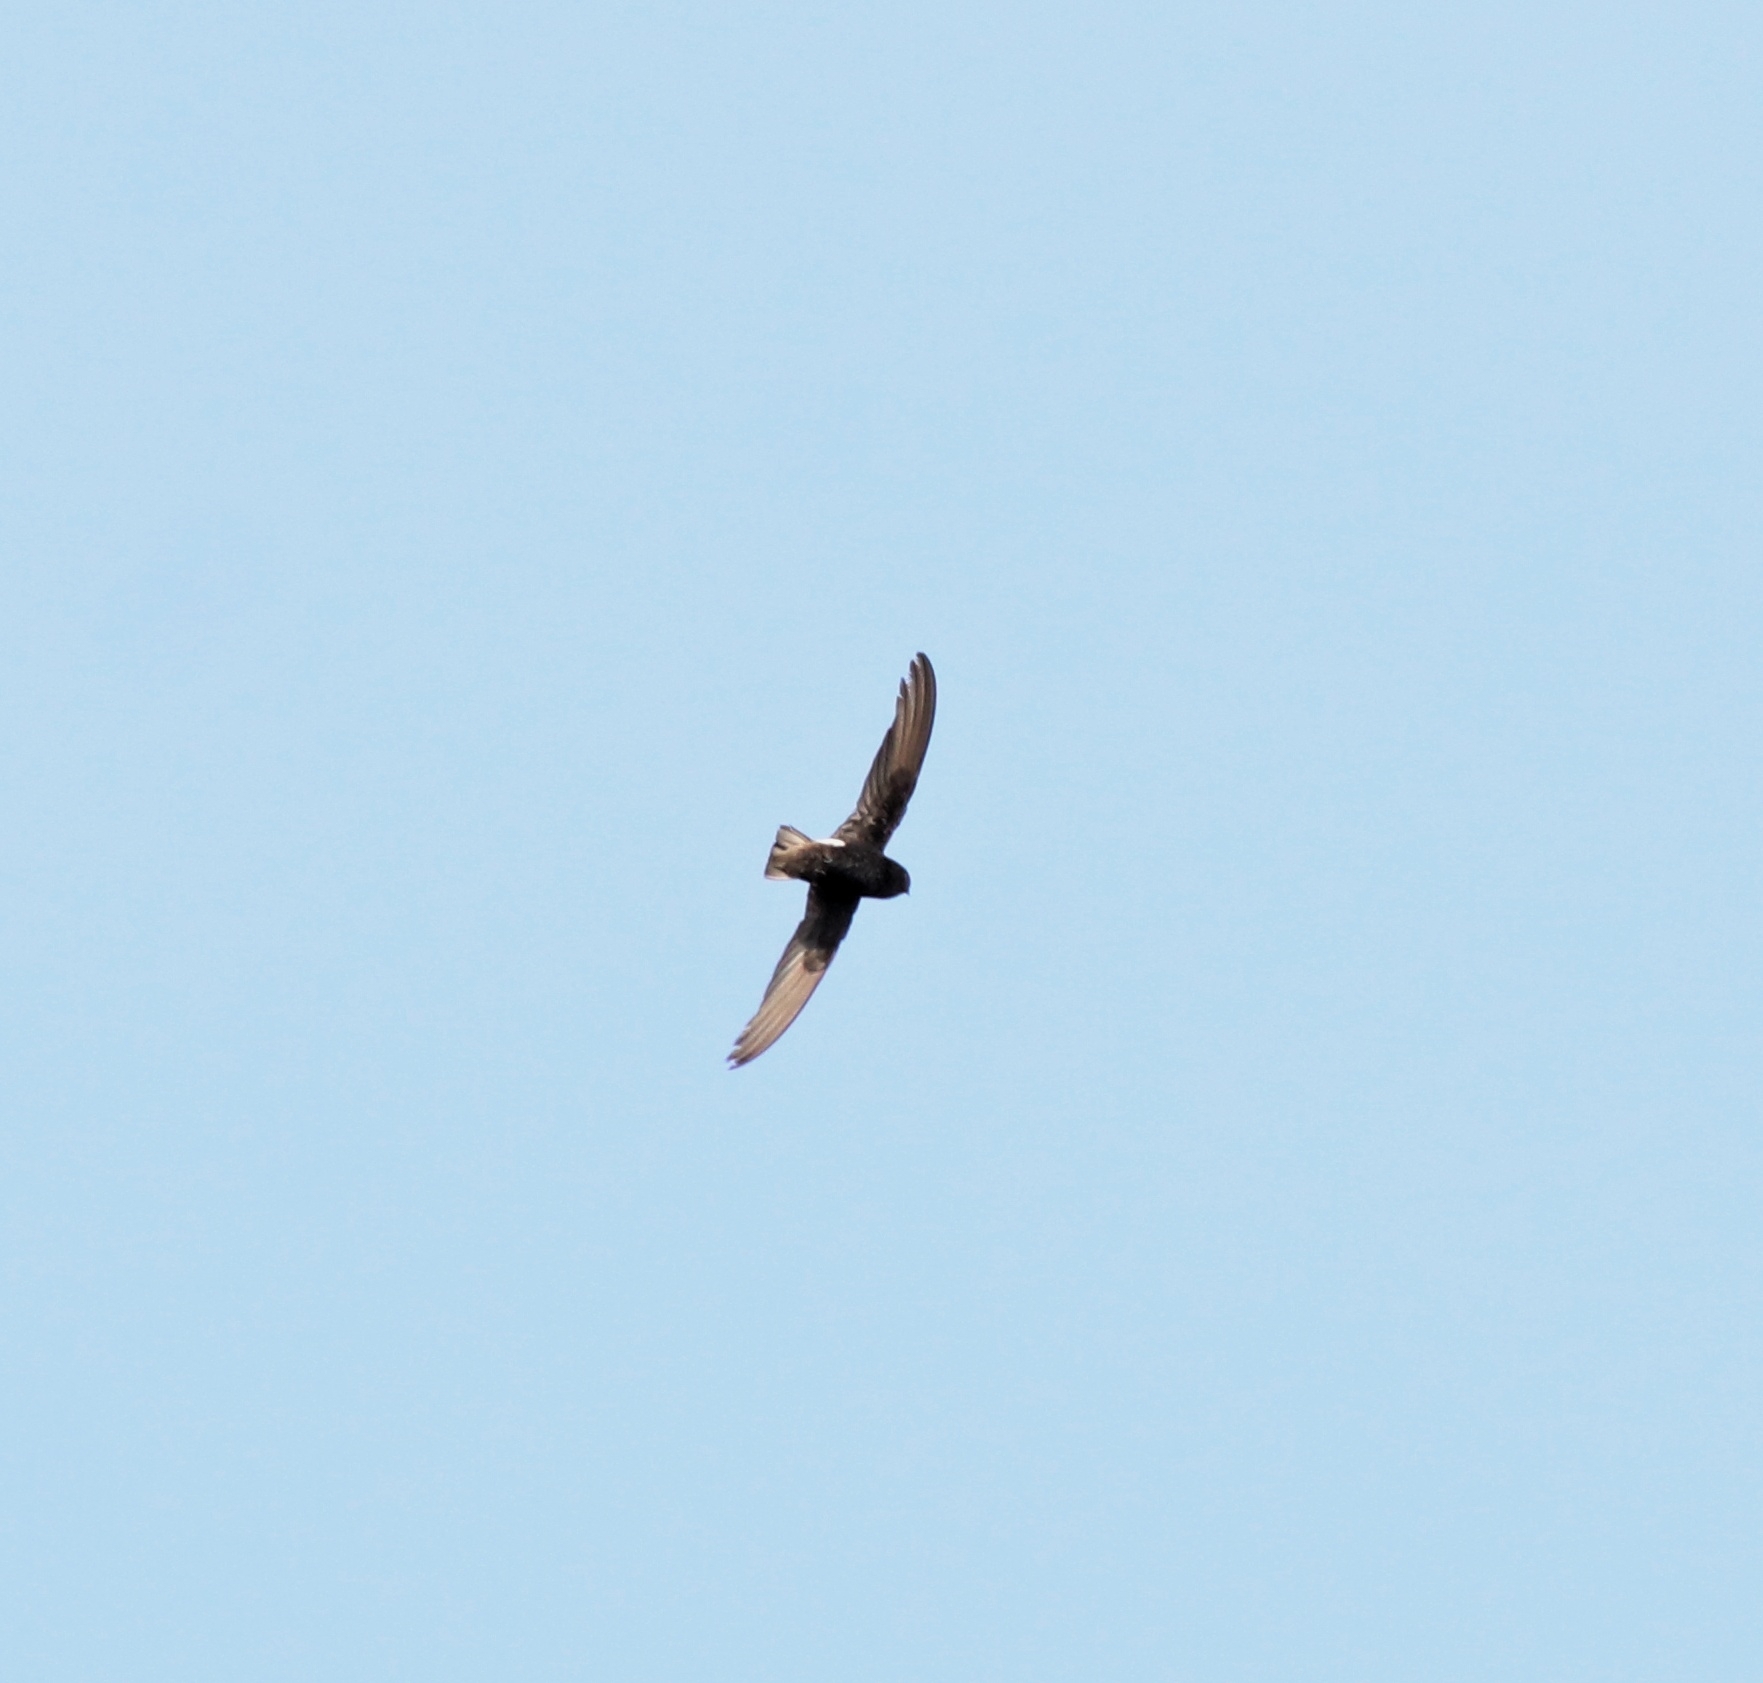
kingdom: Animalia
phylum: Chordata
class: Aves
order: Apodiformes
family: Apodidae
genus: Apus
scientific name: Apus affinis
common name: Little swift
